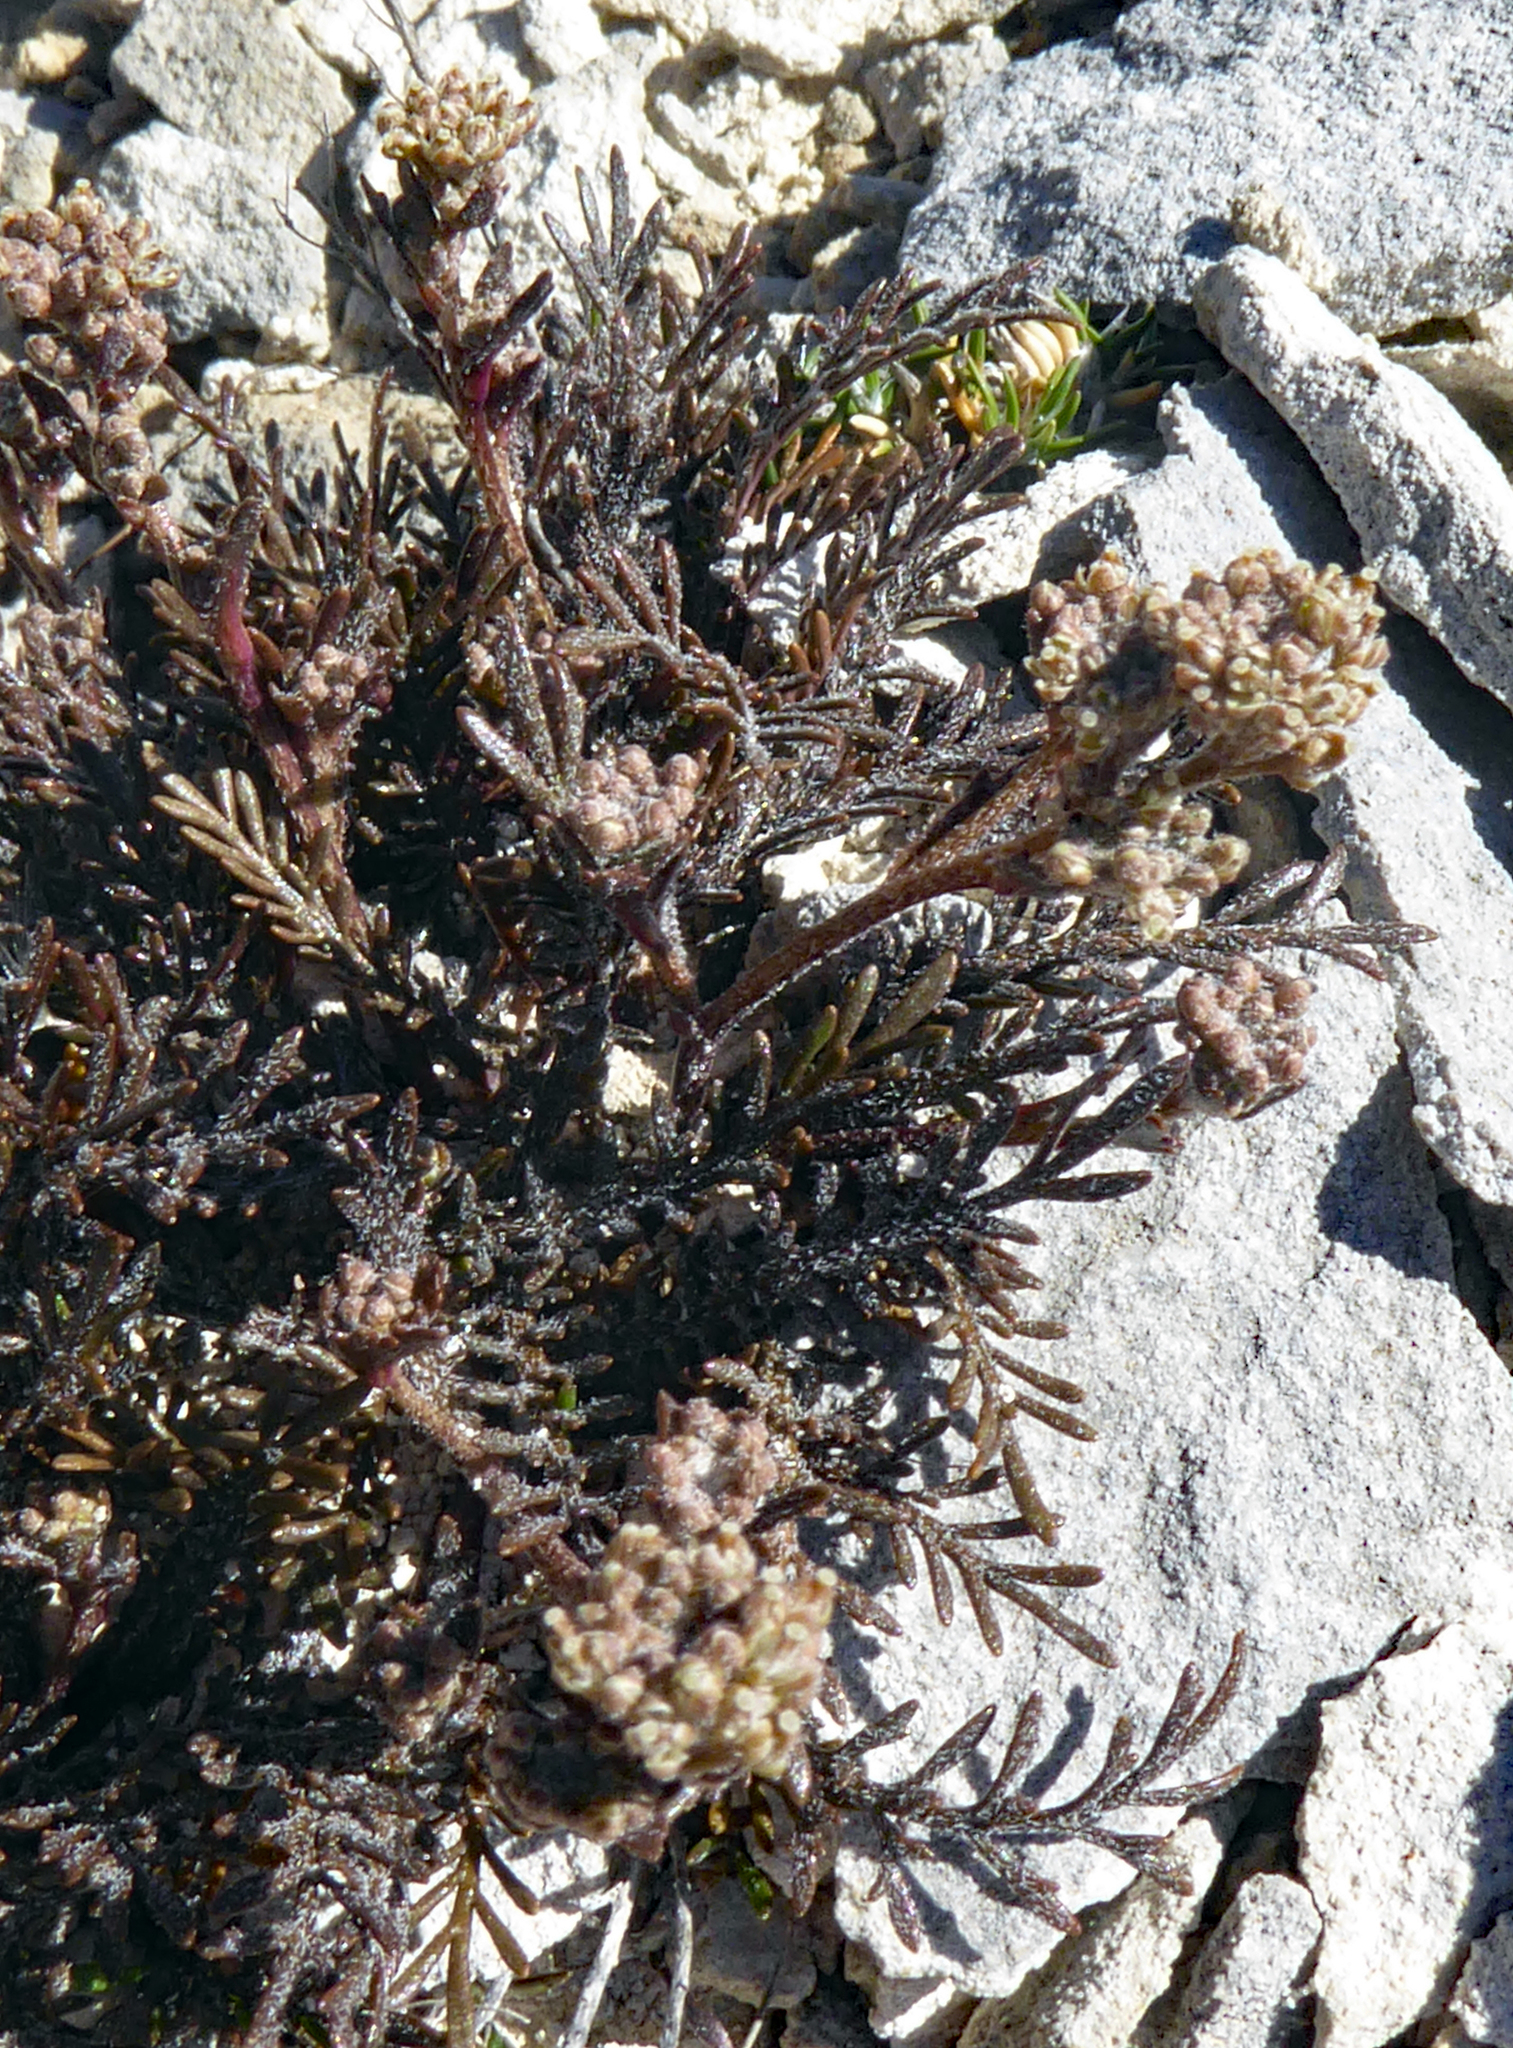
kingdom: Plantae
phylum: Tracheophyta
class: Magnoliopsida
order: Brassicales
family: Brassicaceae
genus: Lepidium
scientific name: Lepidium sisymbrioides
